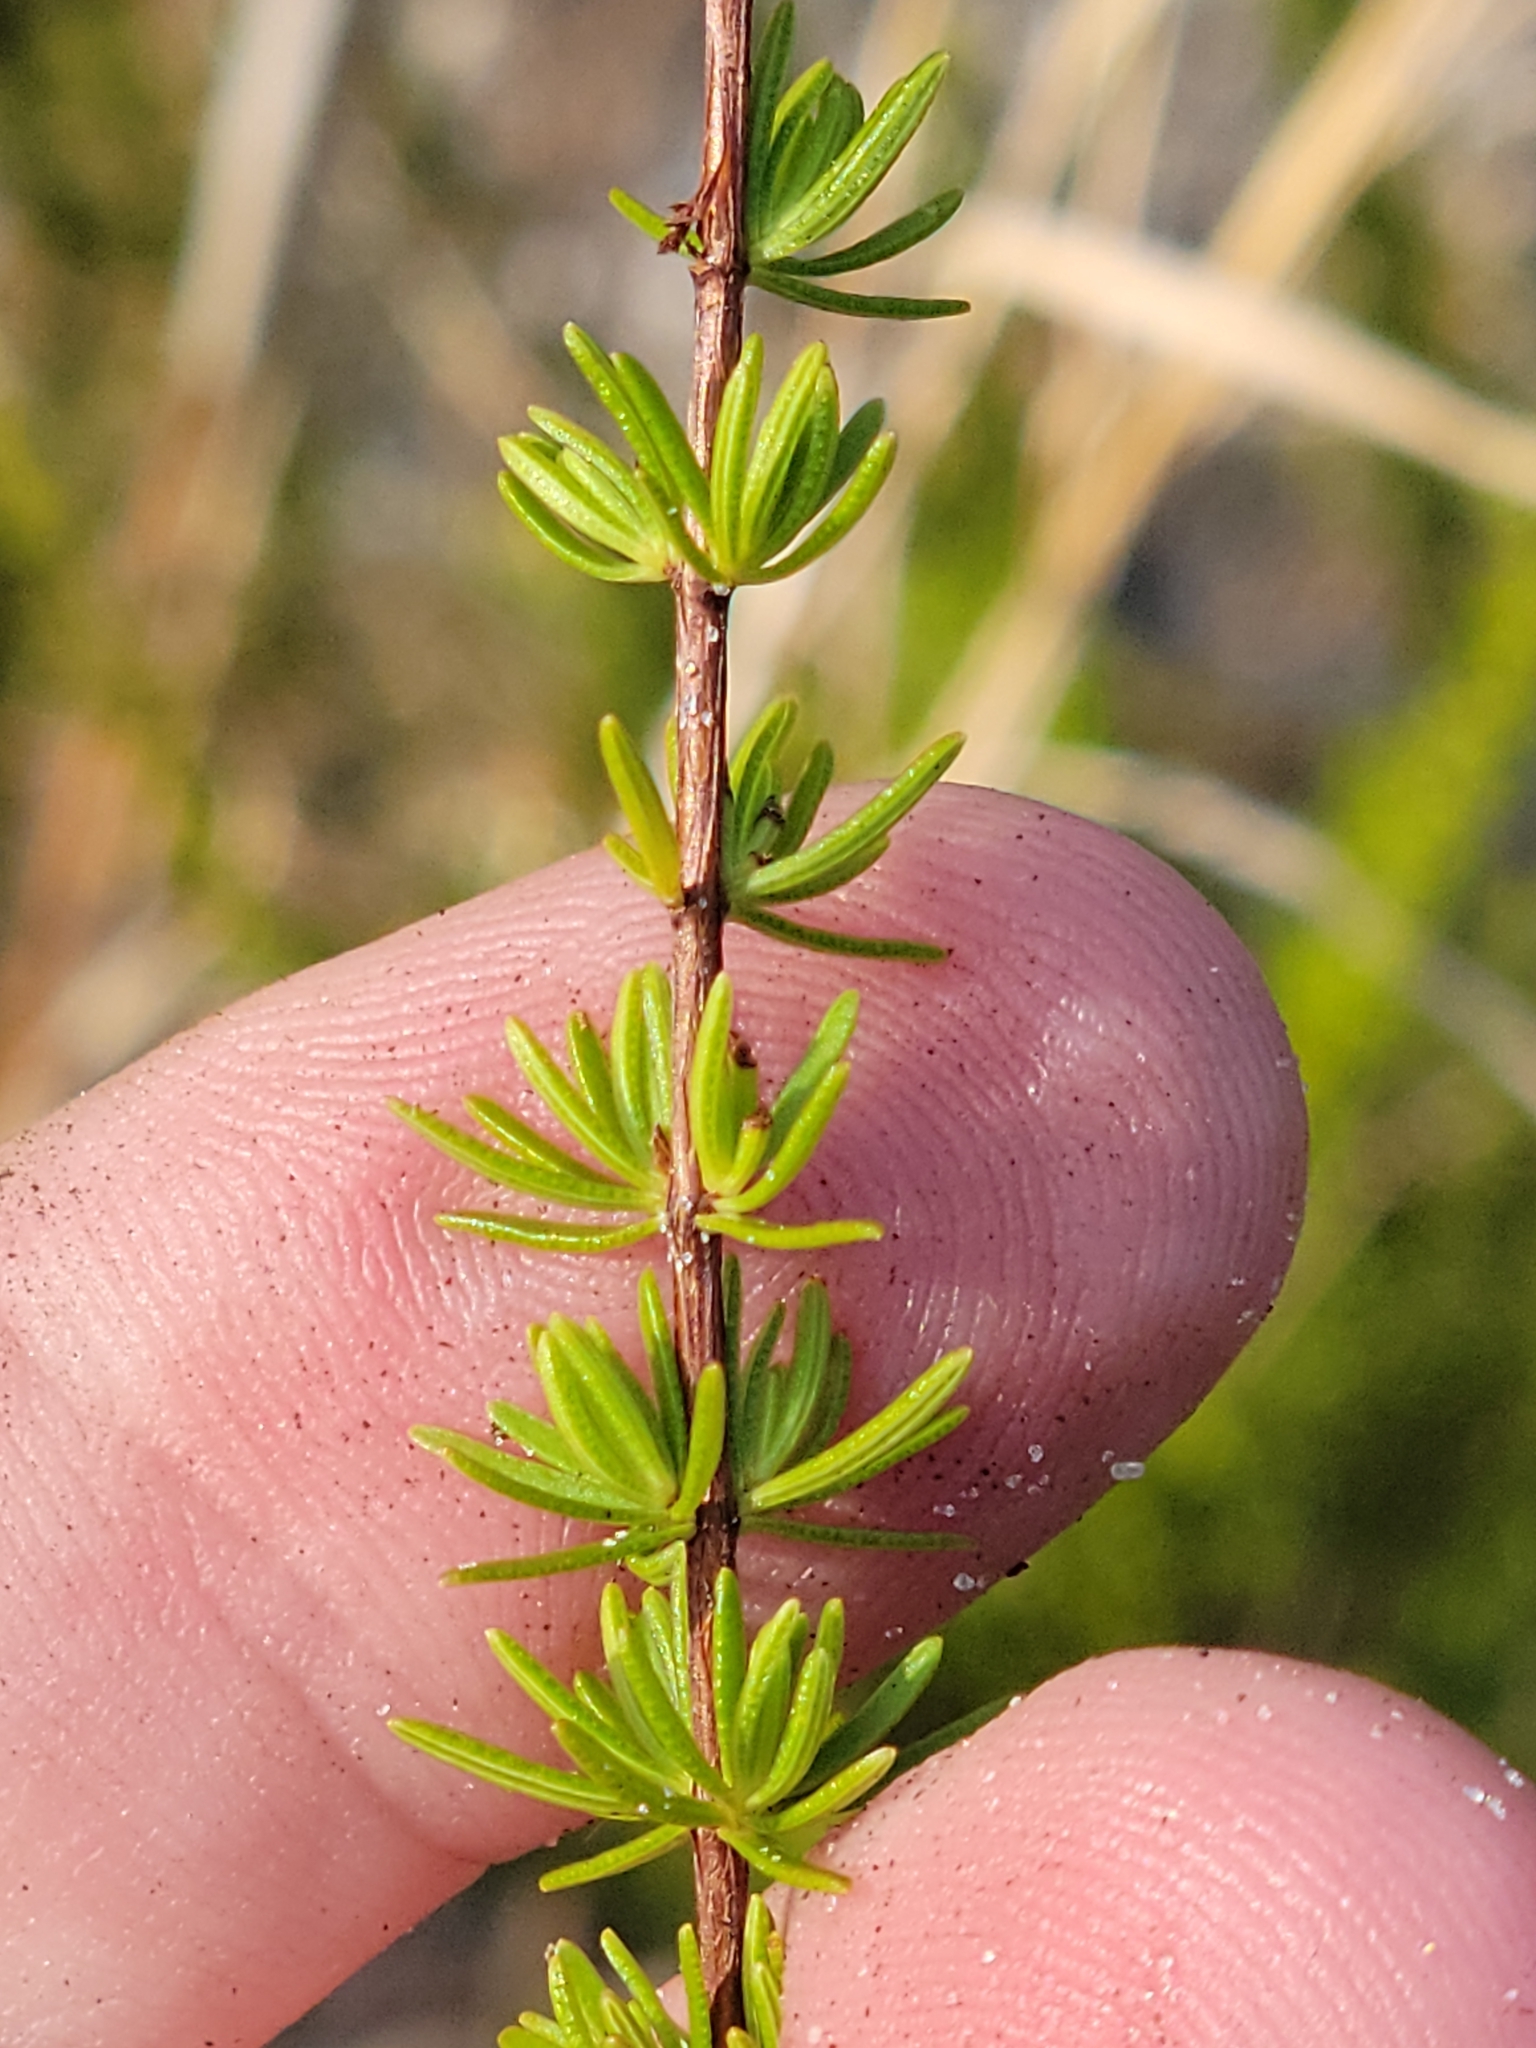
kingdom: Plantae
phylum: Tracheophyta
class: Magnoliopsida
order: Malpighiales
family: Hypericaceae
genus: Hypericum
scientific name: Hypericum tenuifolium
